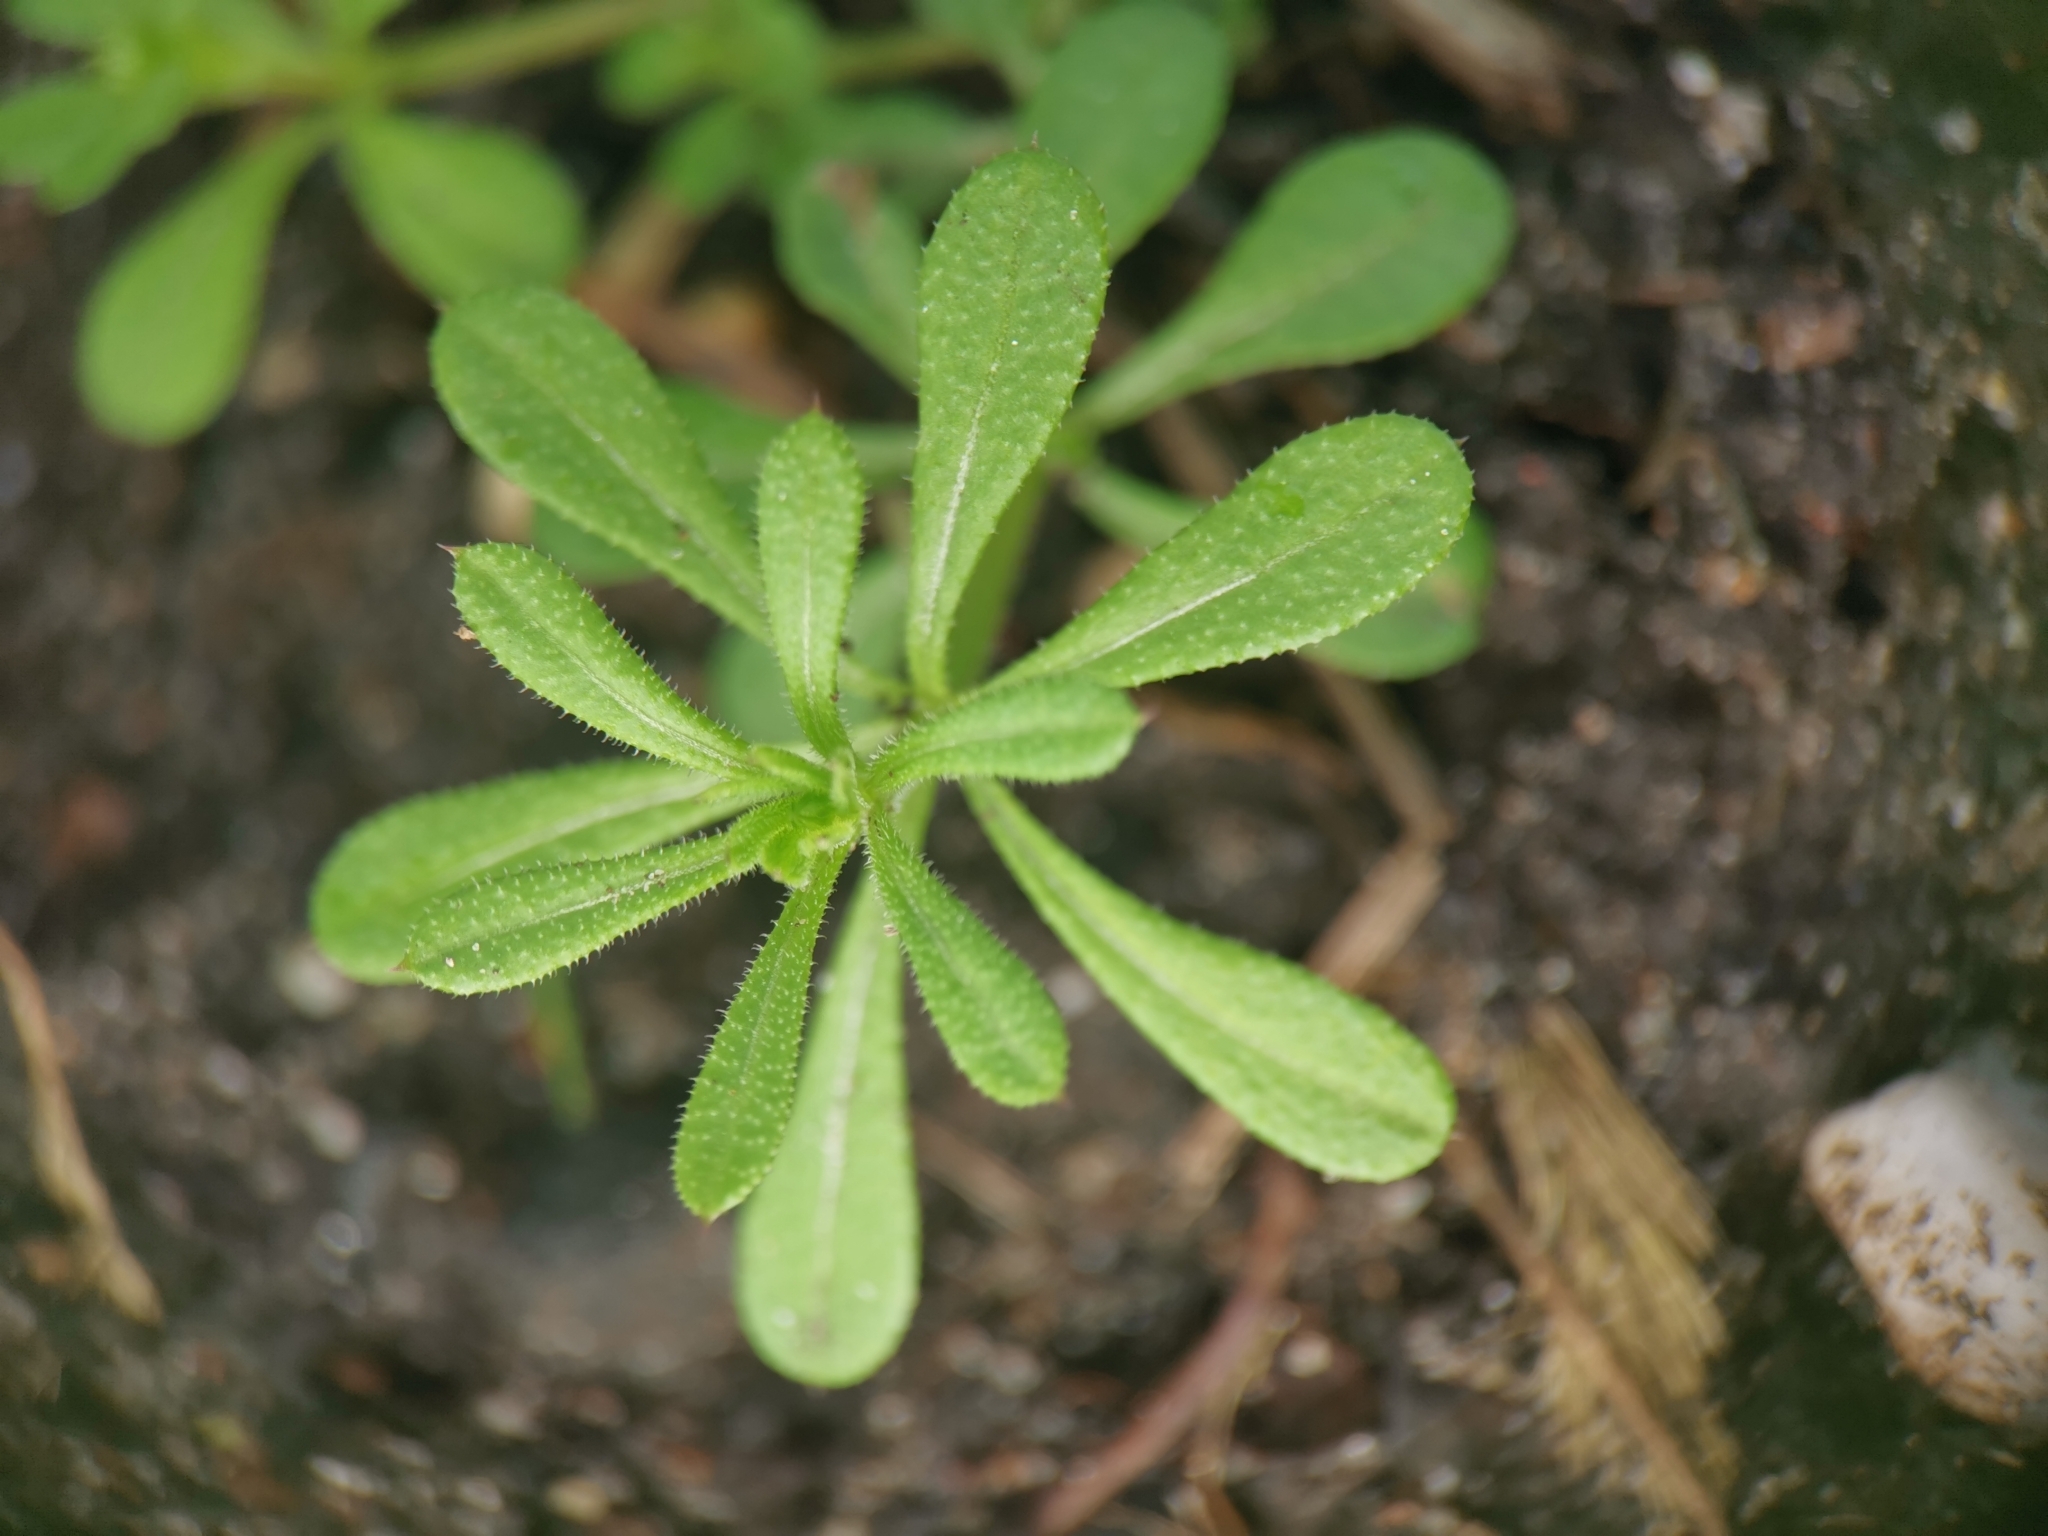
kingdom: Plantae
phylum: Tracheophyta
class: Magnoliopsida
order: Gentianales
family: Rubiaceae
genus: Galium
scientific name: Galium aparine
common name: Cleavers
